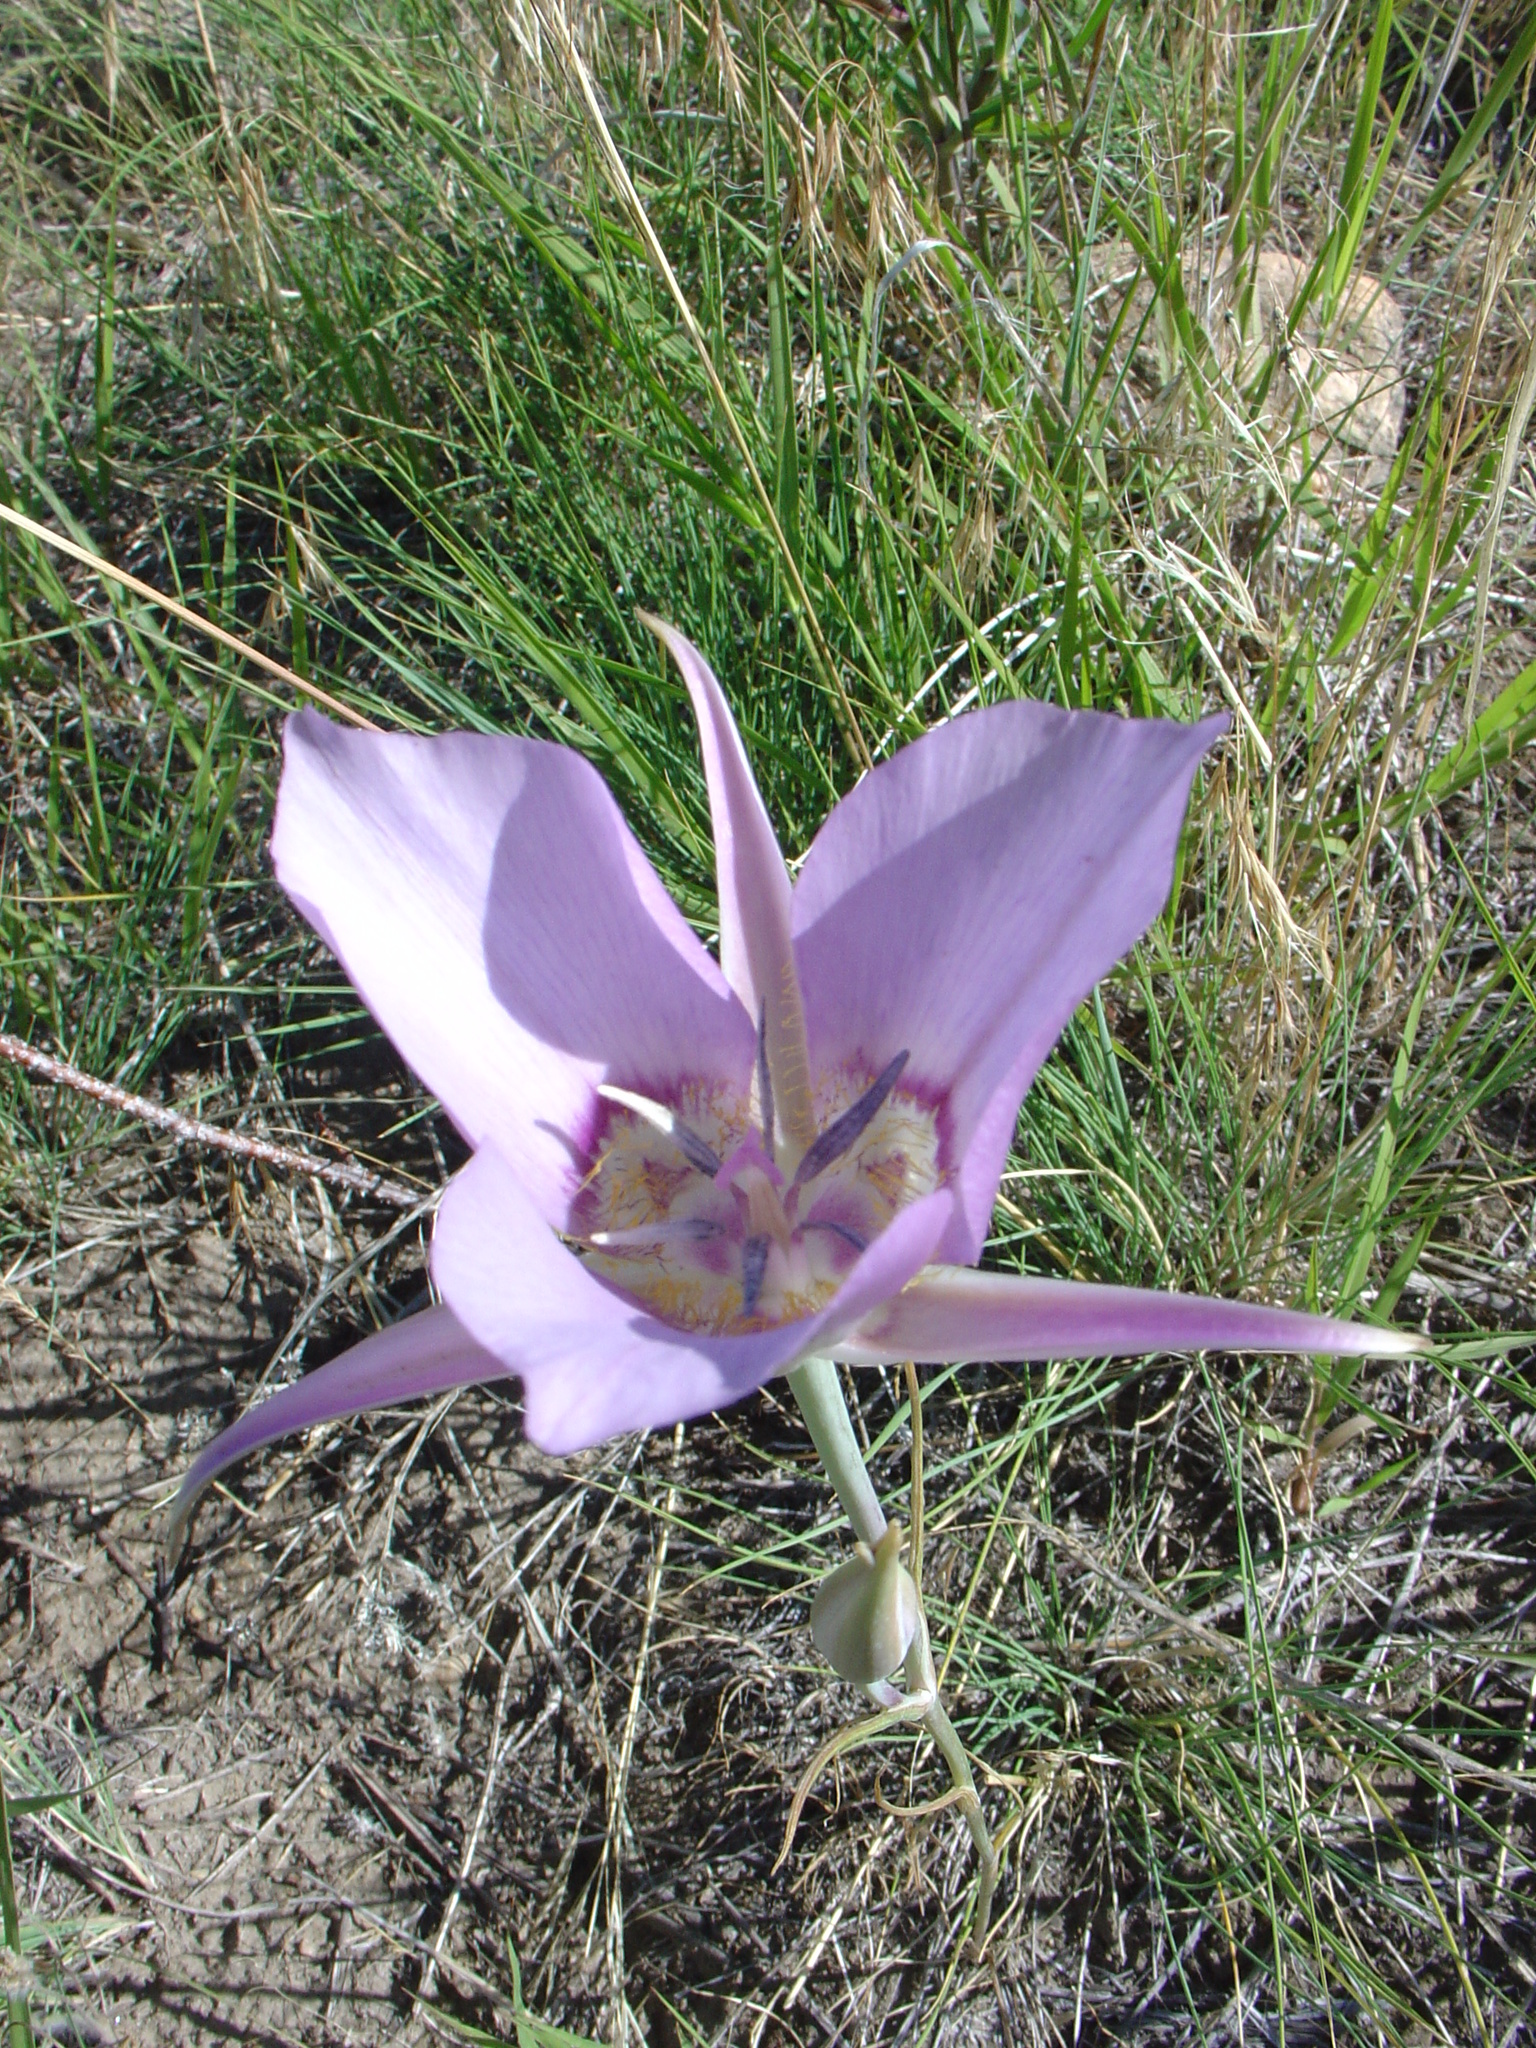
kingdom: Plantae
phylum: Tracheophyta
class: Liliopsida
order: Liliales
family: Liliaceae
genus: Calochortus
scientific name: Calochortus macrocarpus
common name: Green-band mariposa lily
